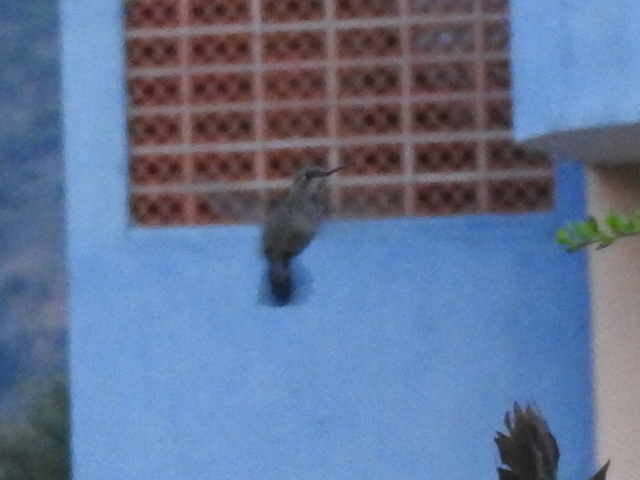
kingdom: Animalia
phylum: Chordata
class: Aves
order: Apodiformes
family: Trochilidae
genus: Cynanthus
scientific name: Cynanthus latirostris
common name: Broad-billed hummingbird
